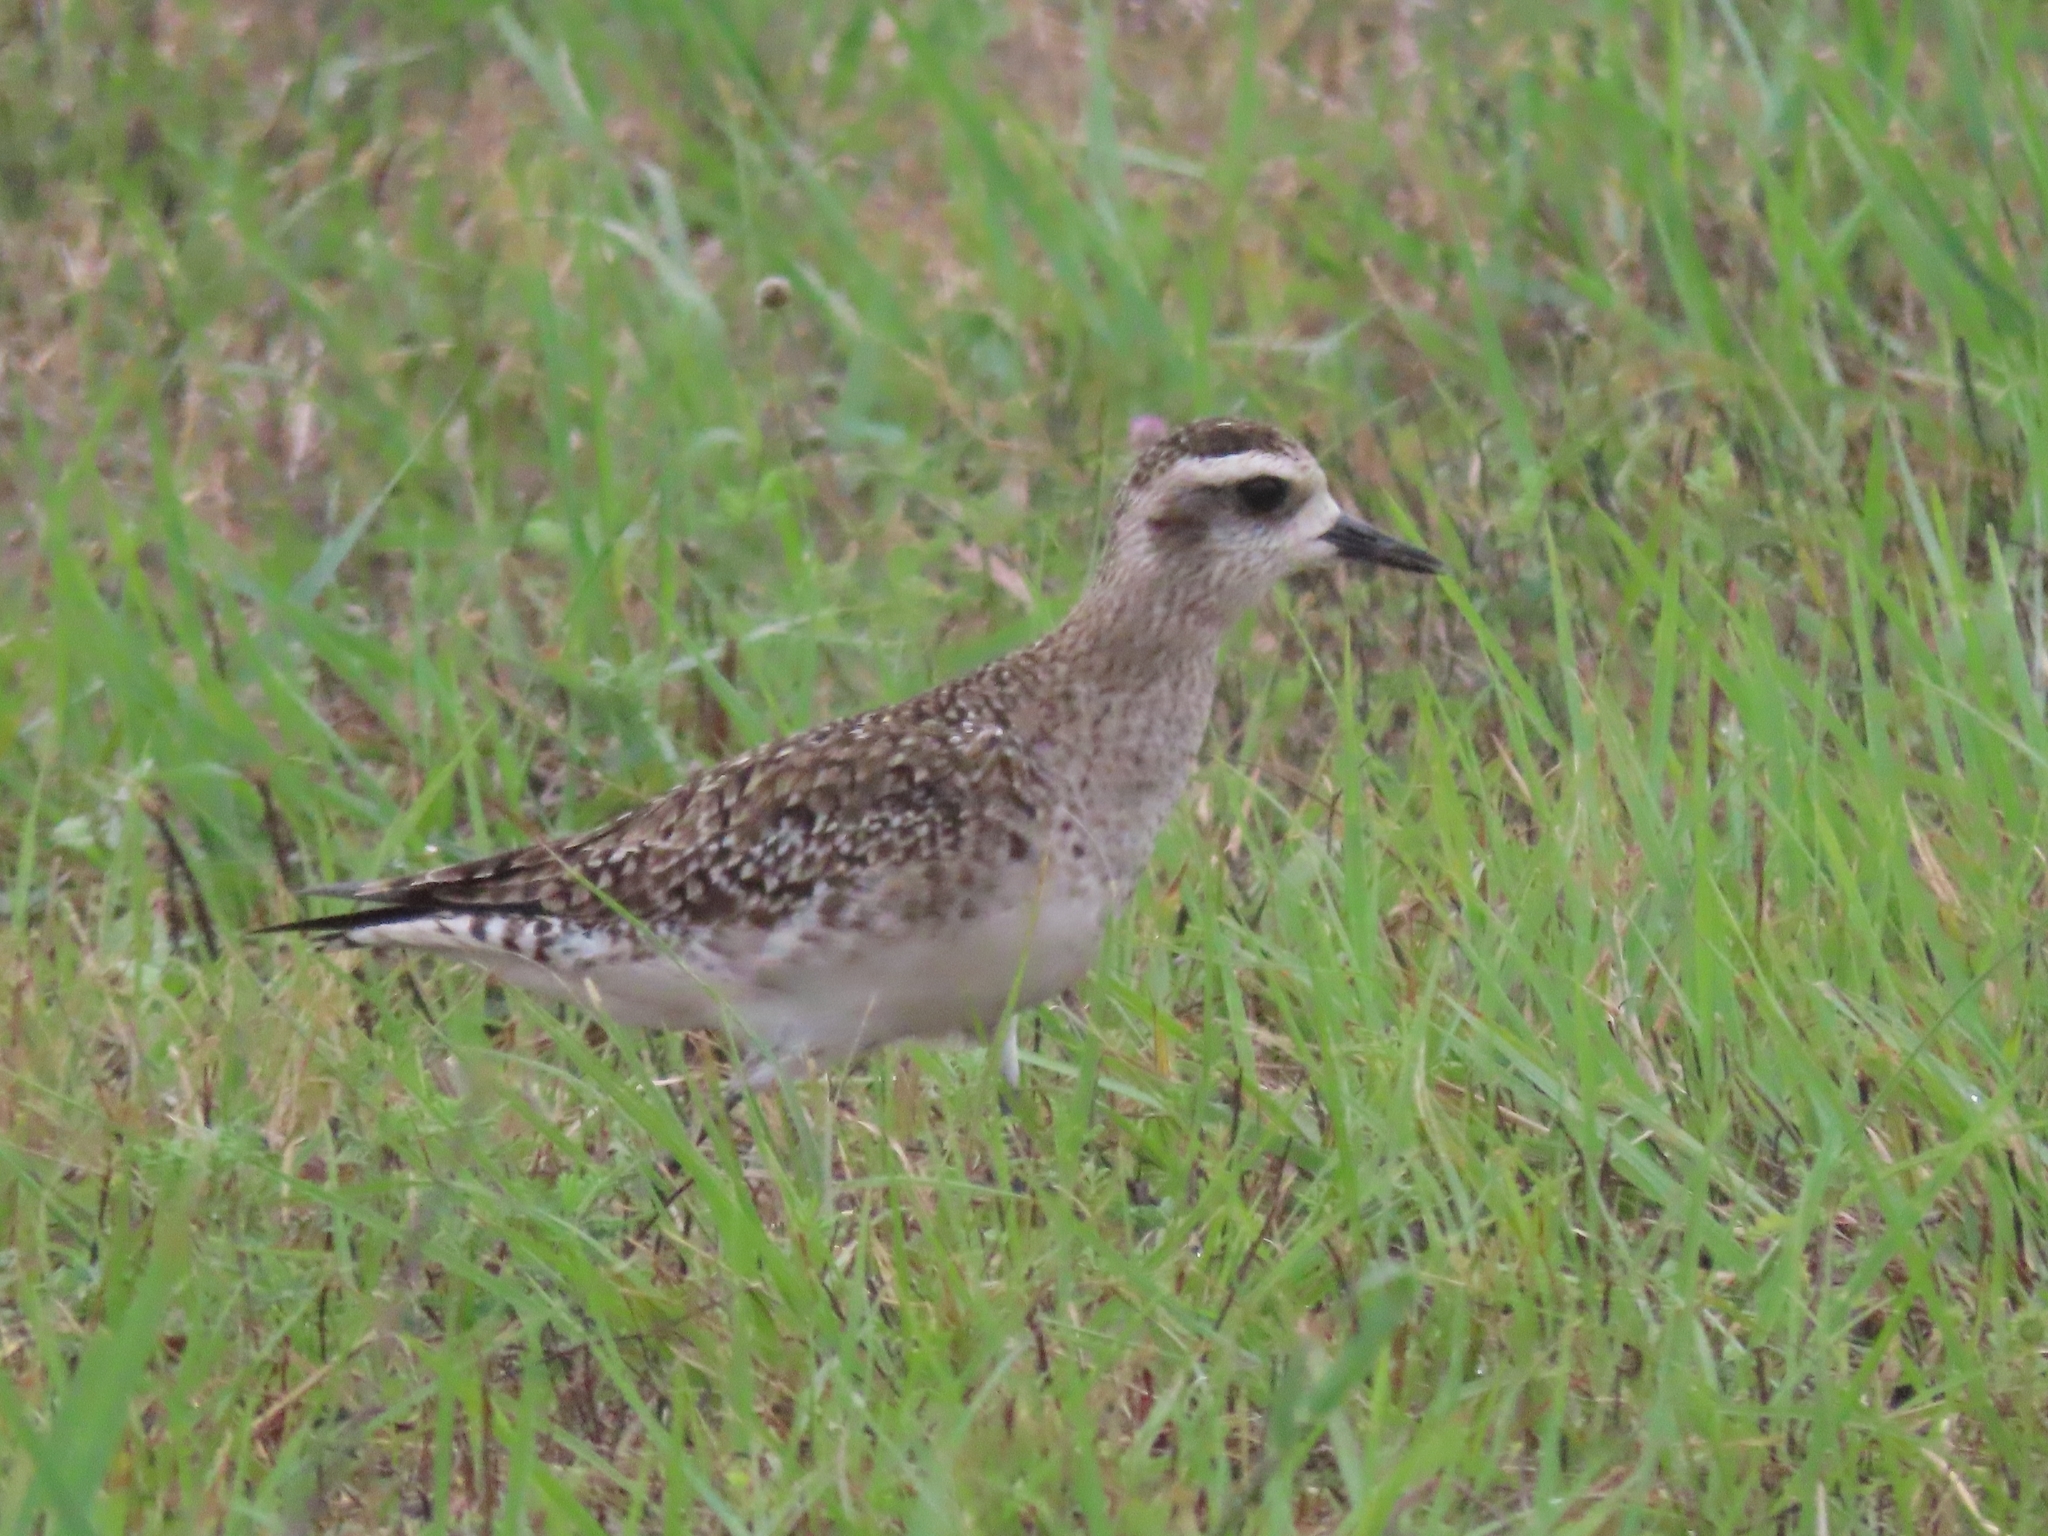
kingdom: Animalia
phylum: Chordata
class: Aves
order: Charadriiformes
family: Charadriidae
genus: Pluvialis
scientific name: Pluvialis dominica
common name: American golden plover
